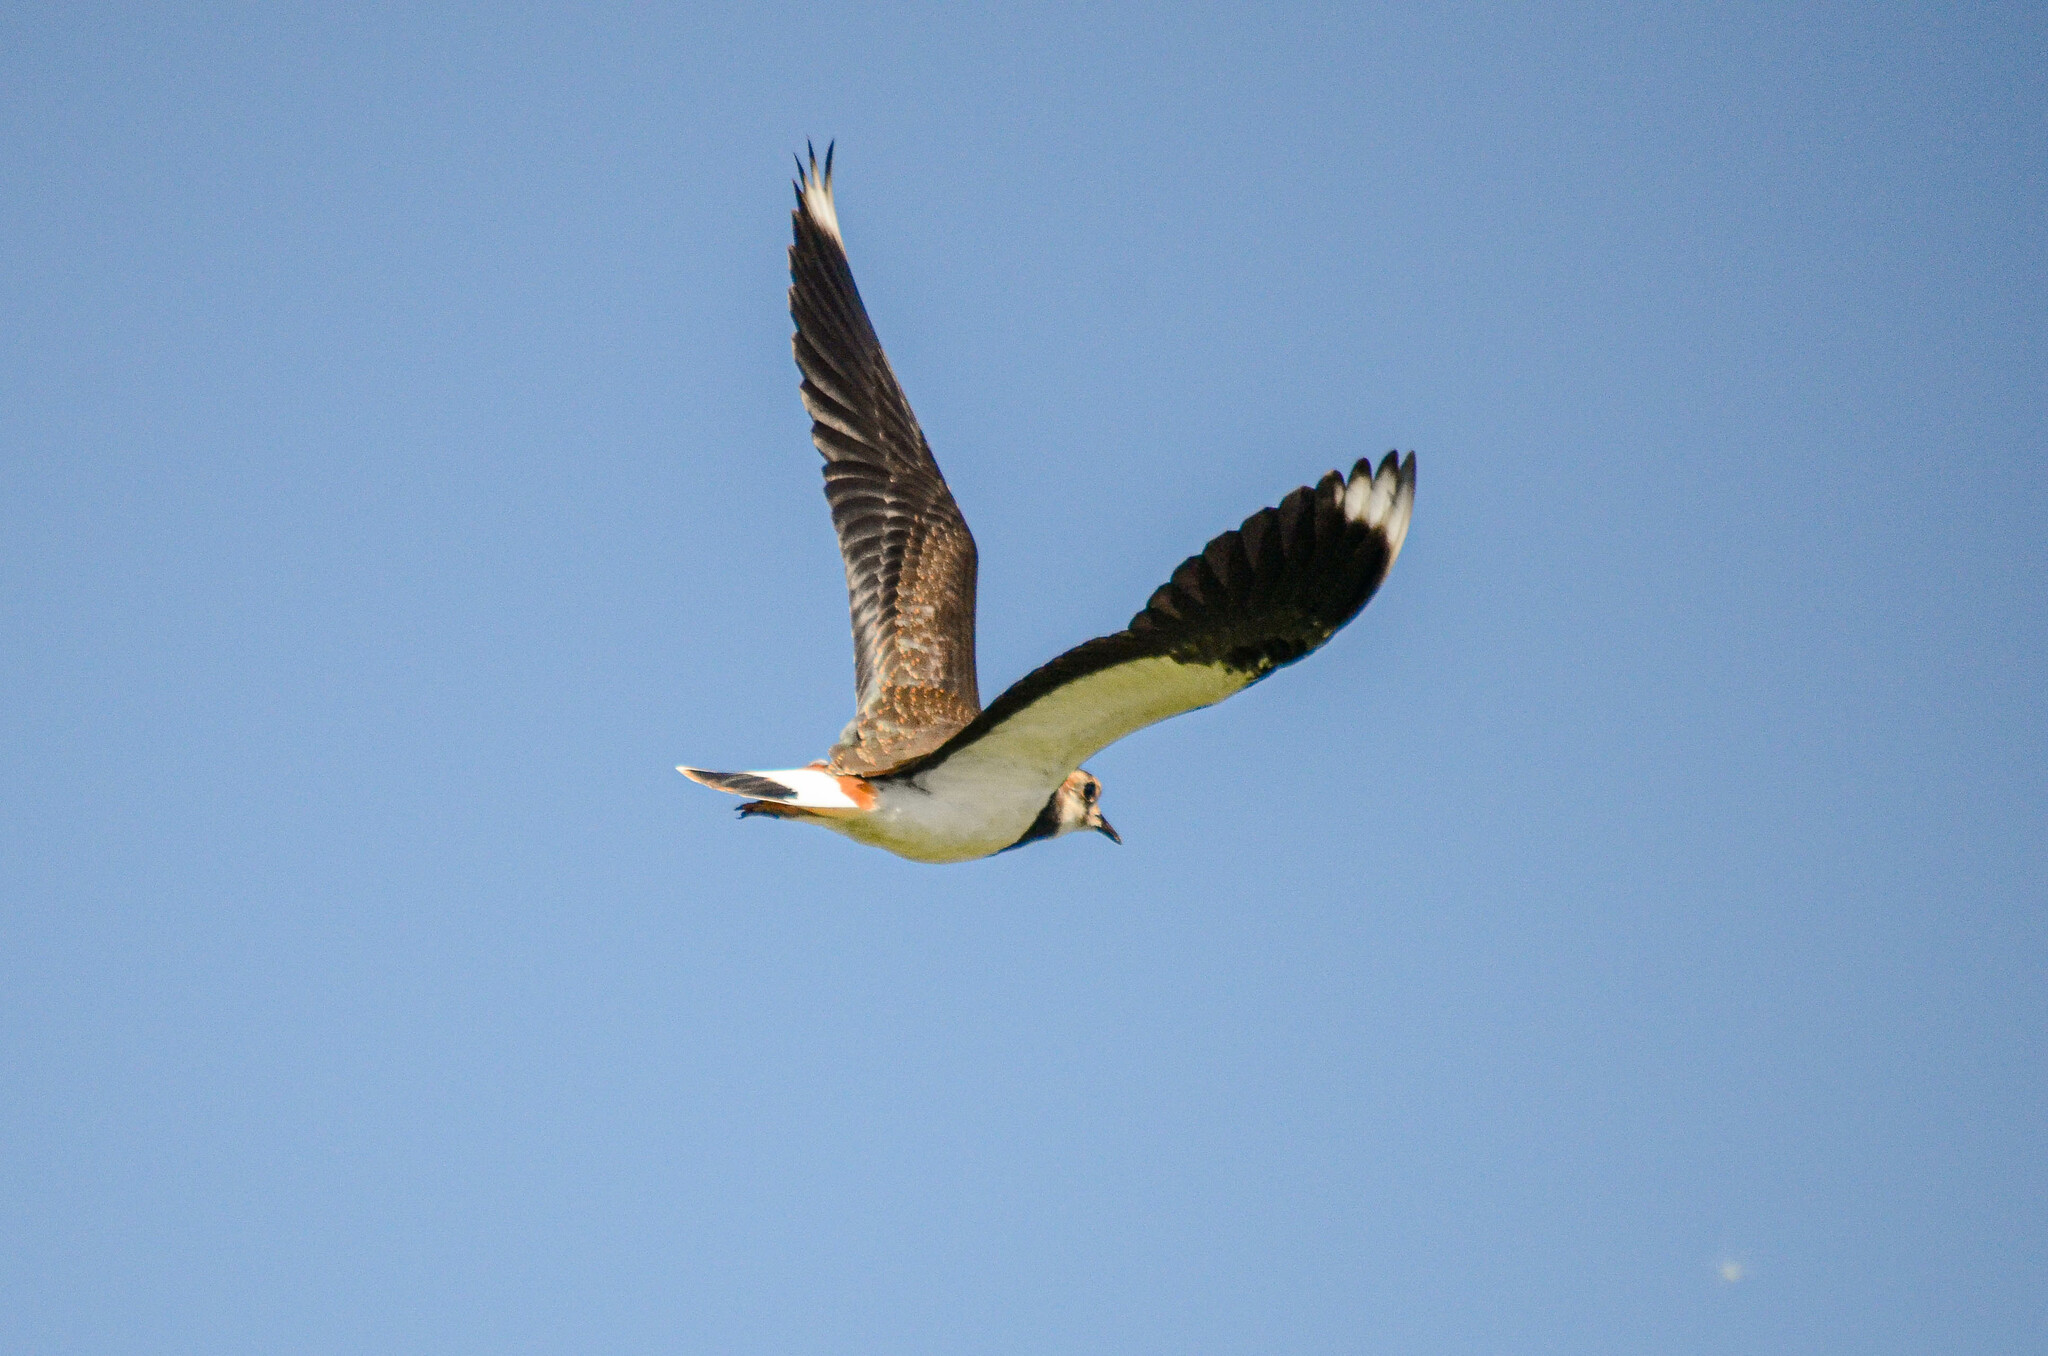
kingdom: Animalia
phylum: Chordata
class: Aves
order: Charadriiformes
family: Charadriidae
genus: Vanellus
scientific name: Vanellus vanellus
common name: Northern lapwing
